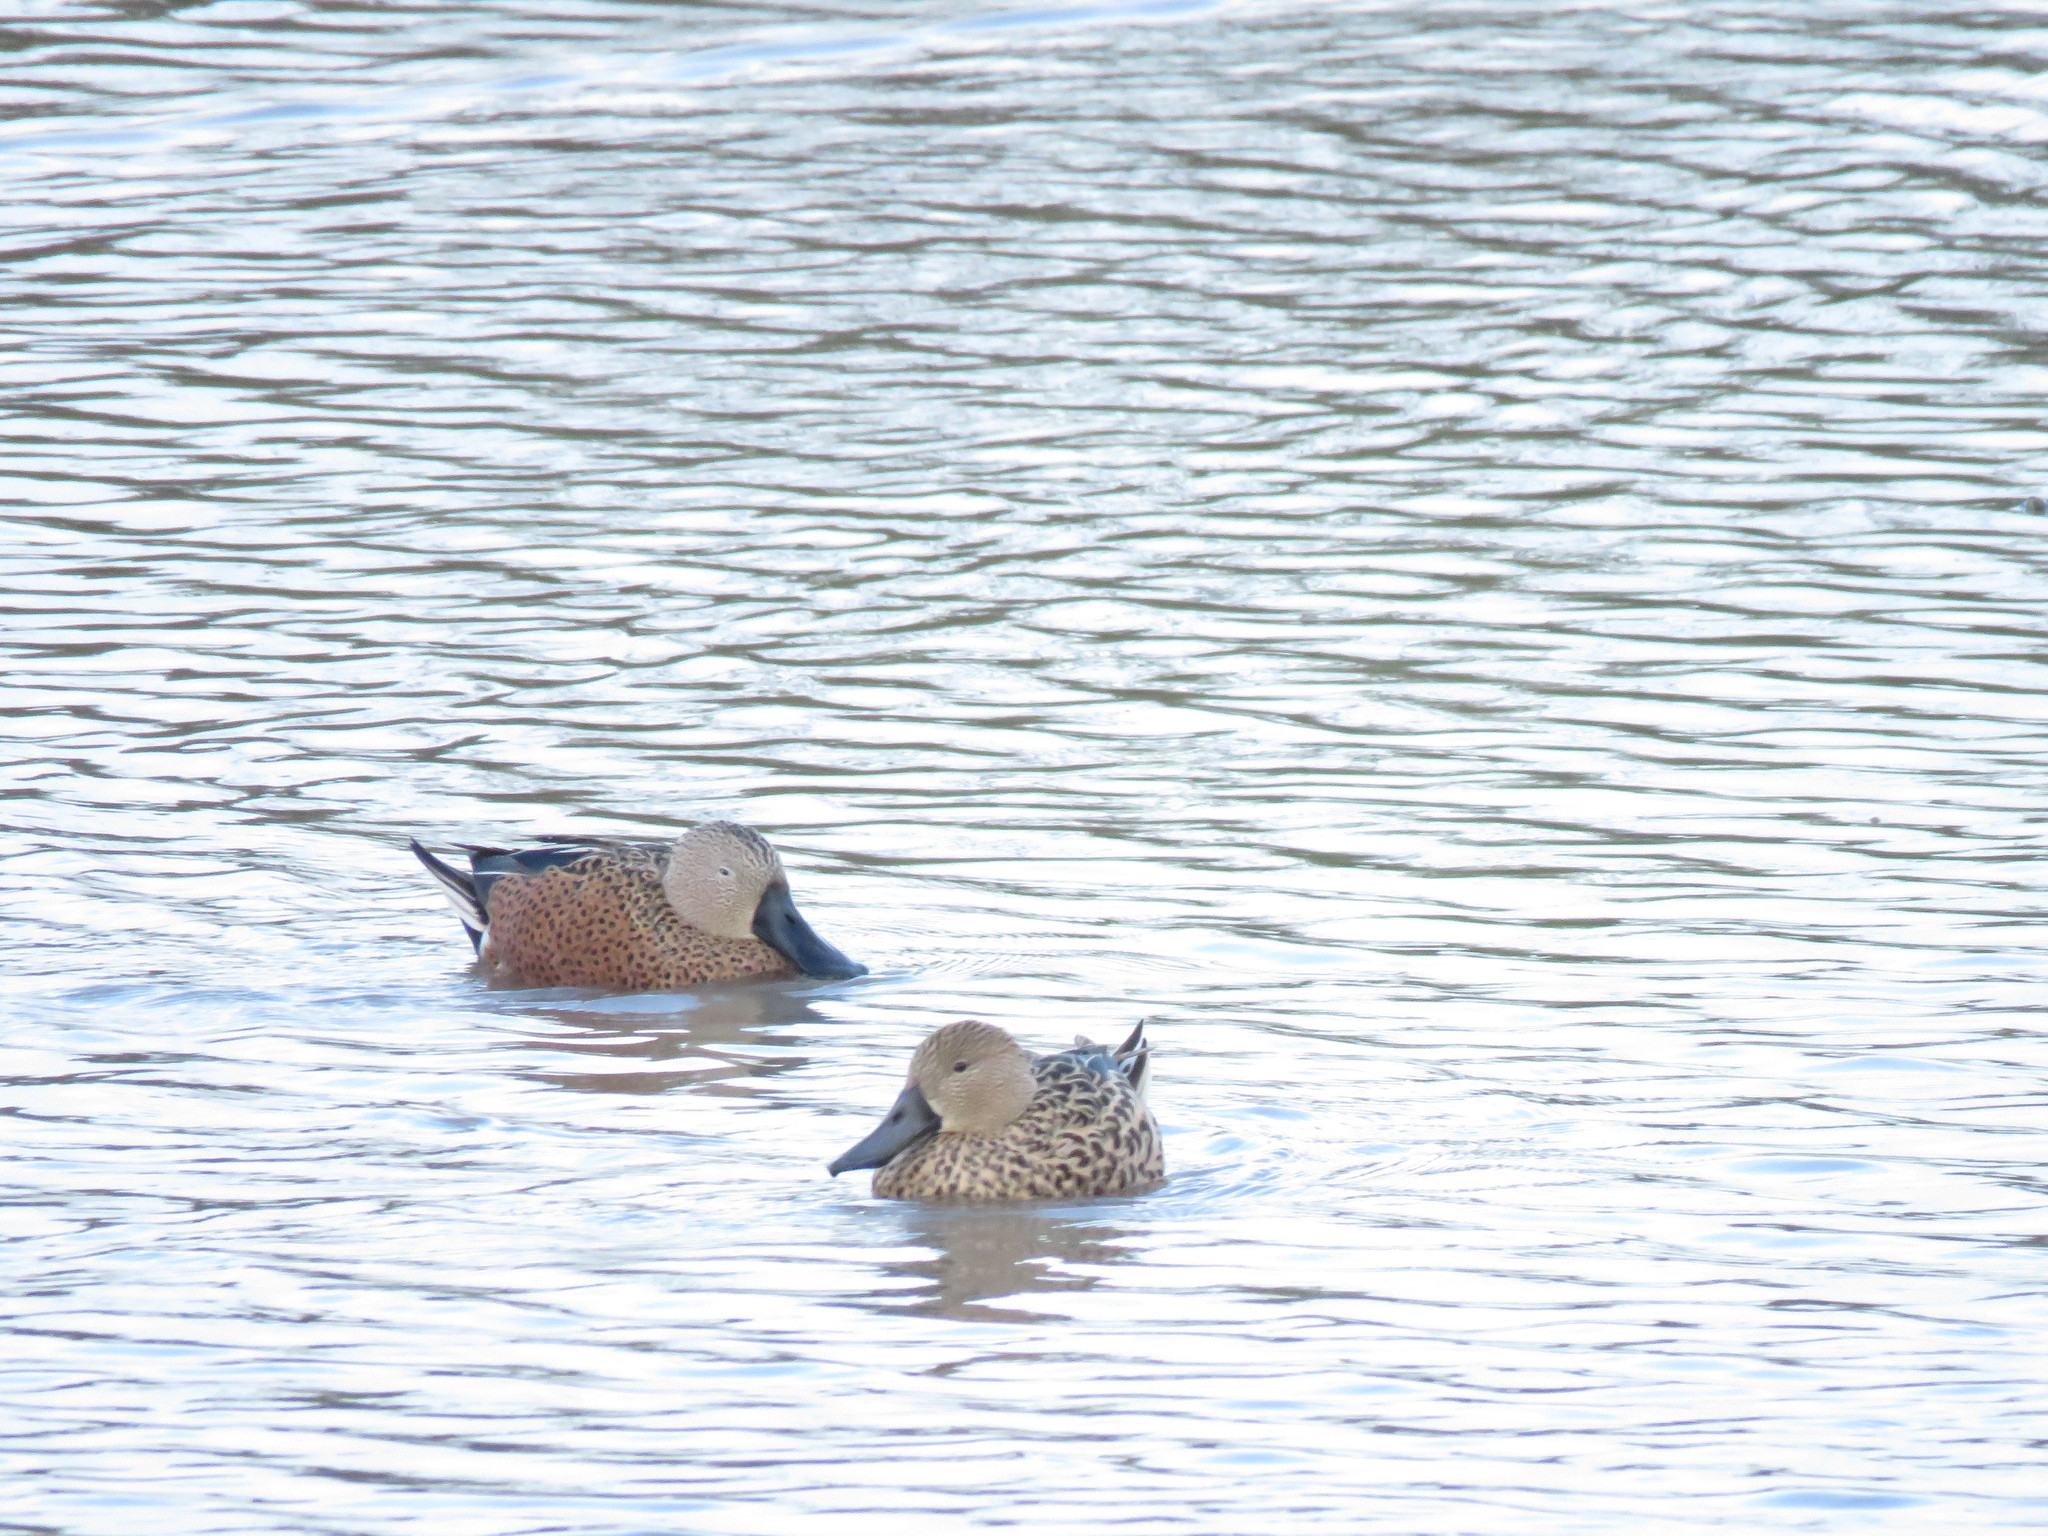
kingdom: Animalia
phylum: Chordata
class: Aves
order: Anseriformes
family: Anatidae
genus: Spatula
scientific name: Spatula platalea
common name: Red shoveler
